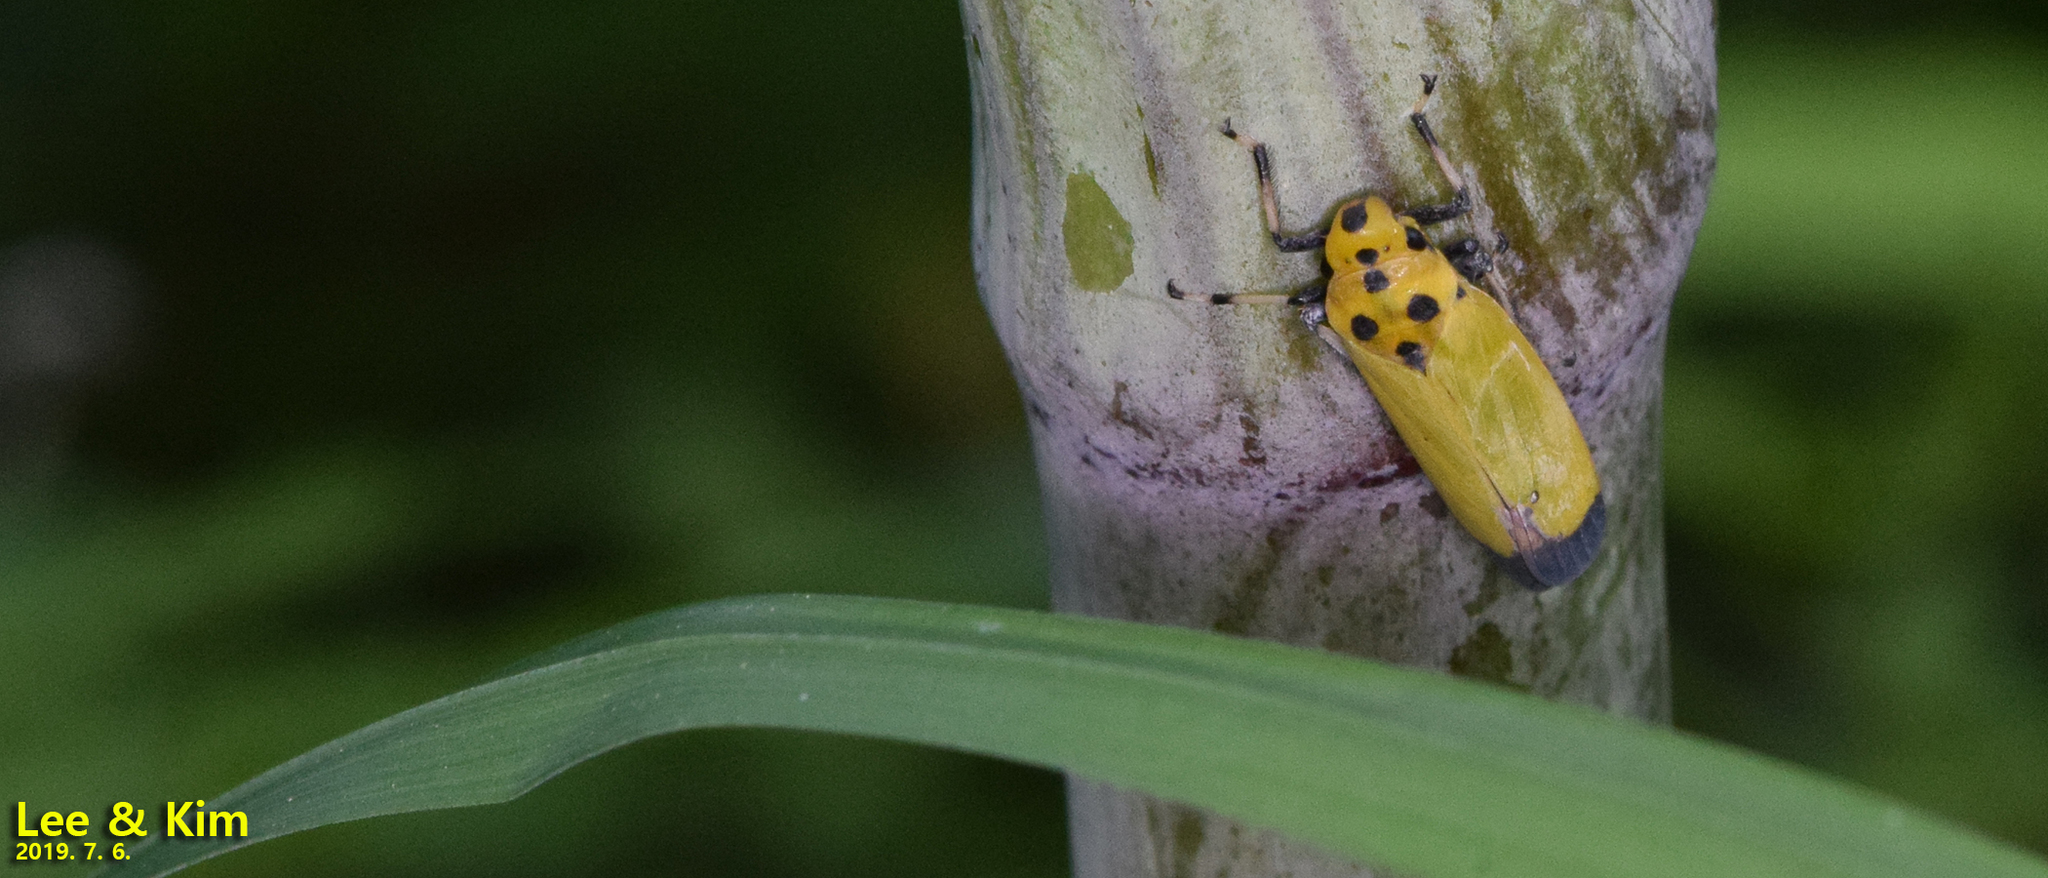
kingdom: Animalia
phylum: Arthropoda
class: Insecta
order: Hemiptera
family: Cicadellidae
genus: Bothrogonia
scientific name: Bothrogonia ferruginea
